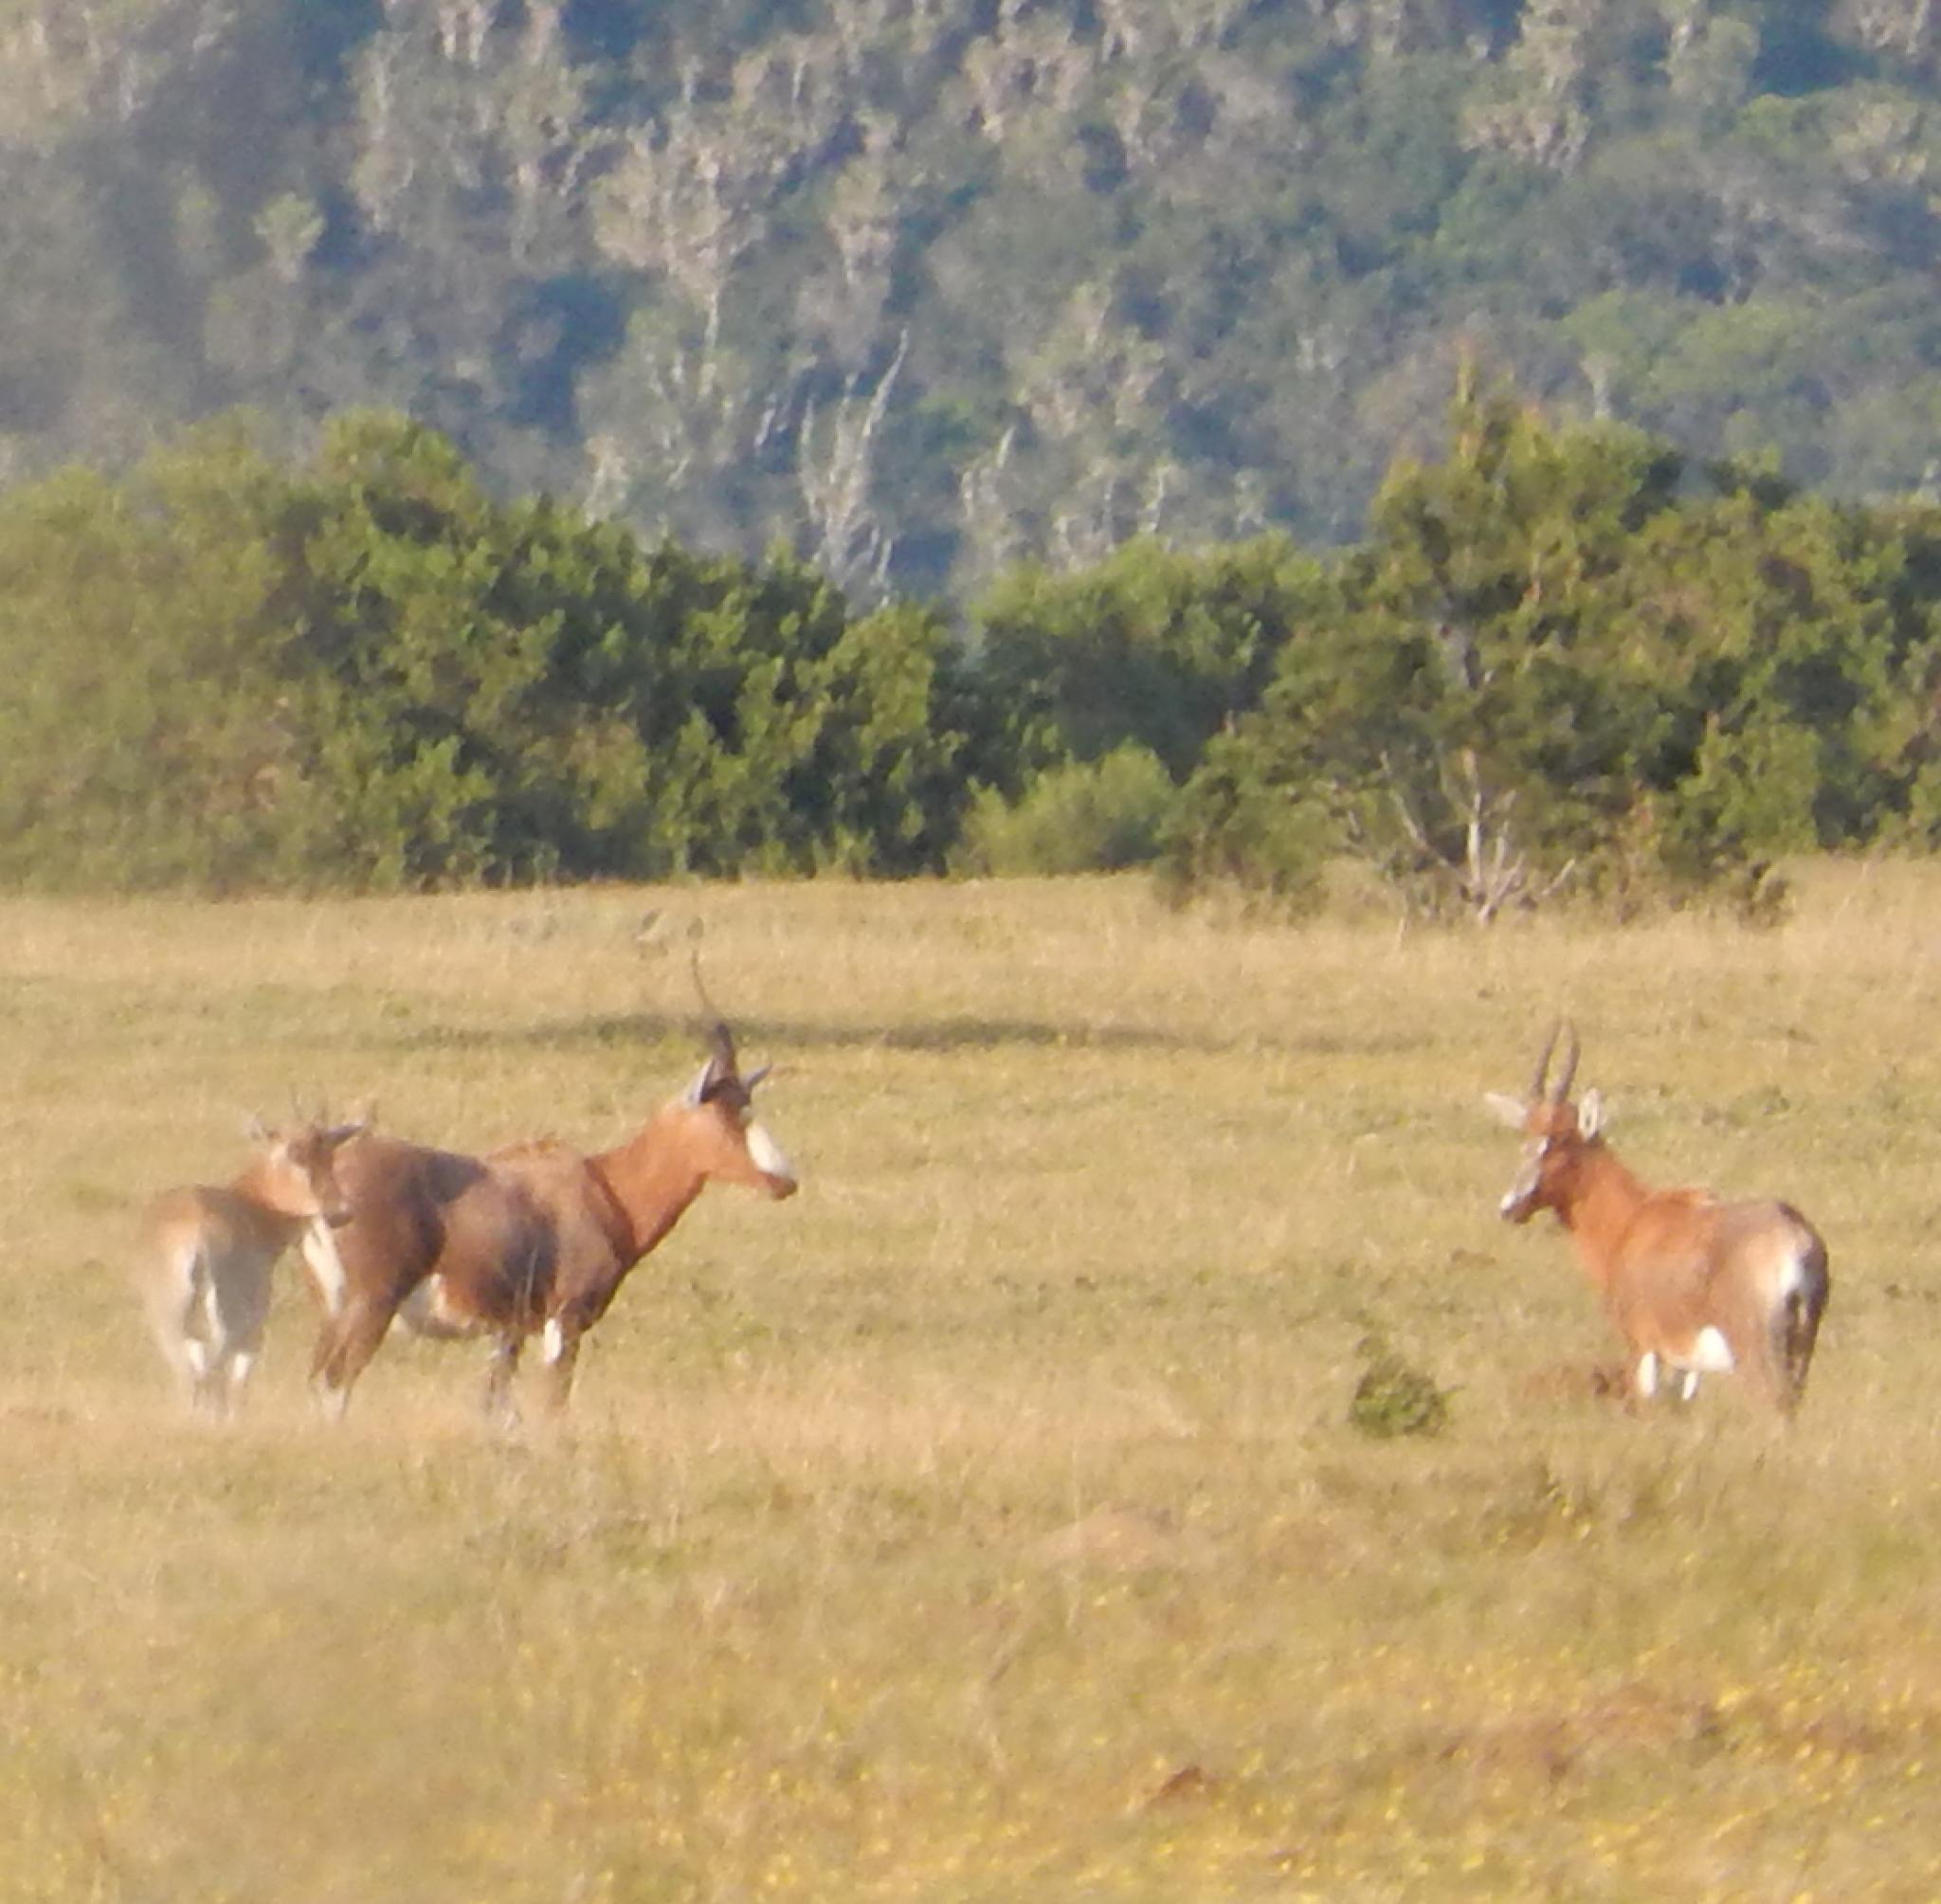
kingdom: Animalia
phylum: Chordata
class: Mammalia
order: Artiodactyla
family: Bovidae
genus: Damaliscus
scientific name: Damaliscus pygargus
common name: Bontebok
